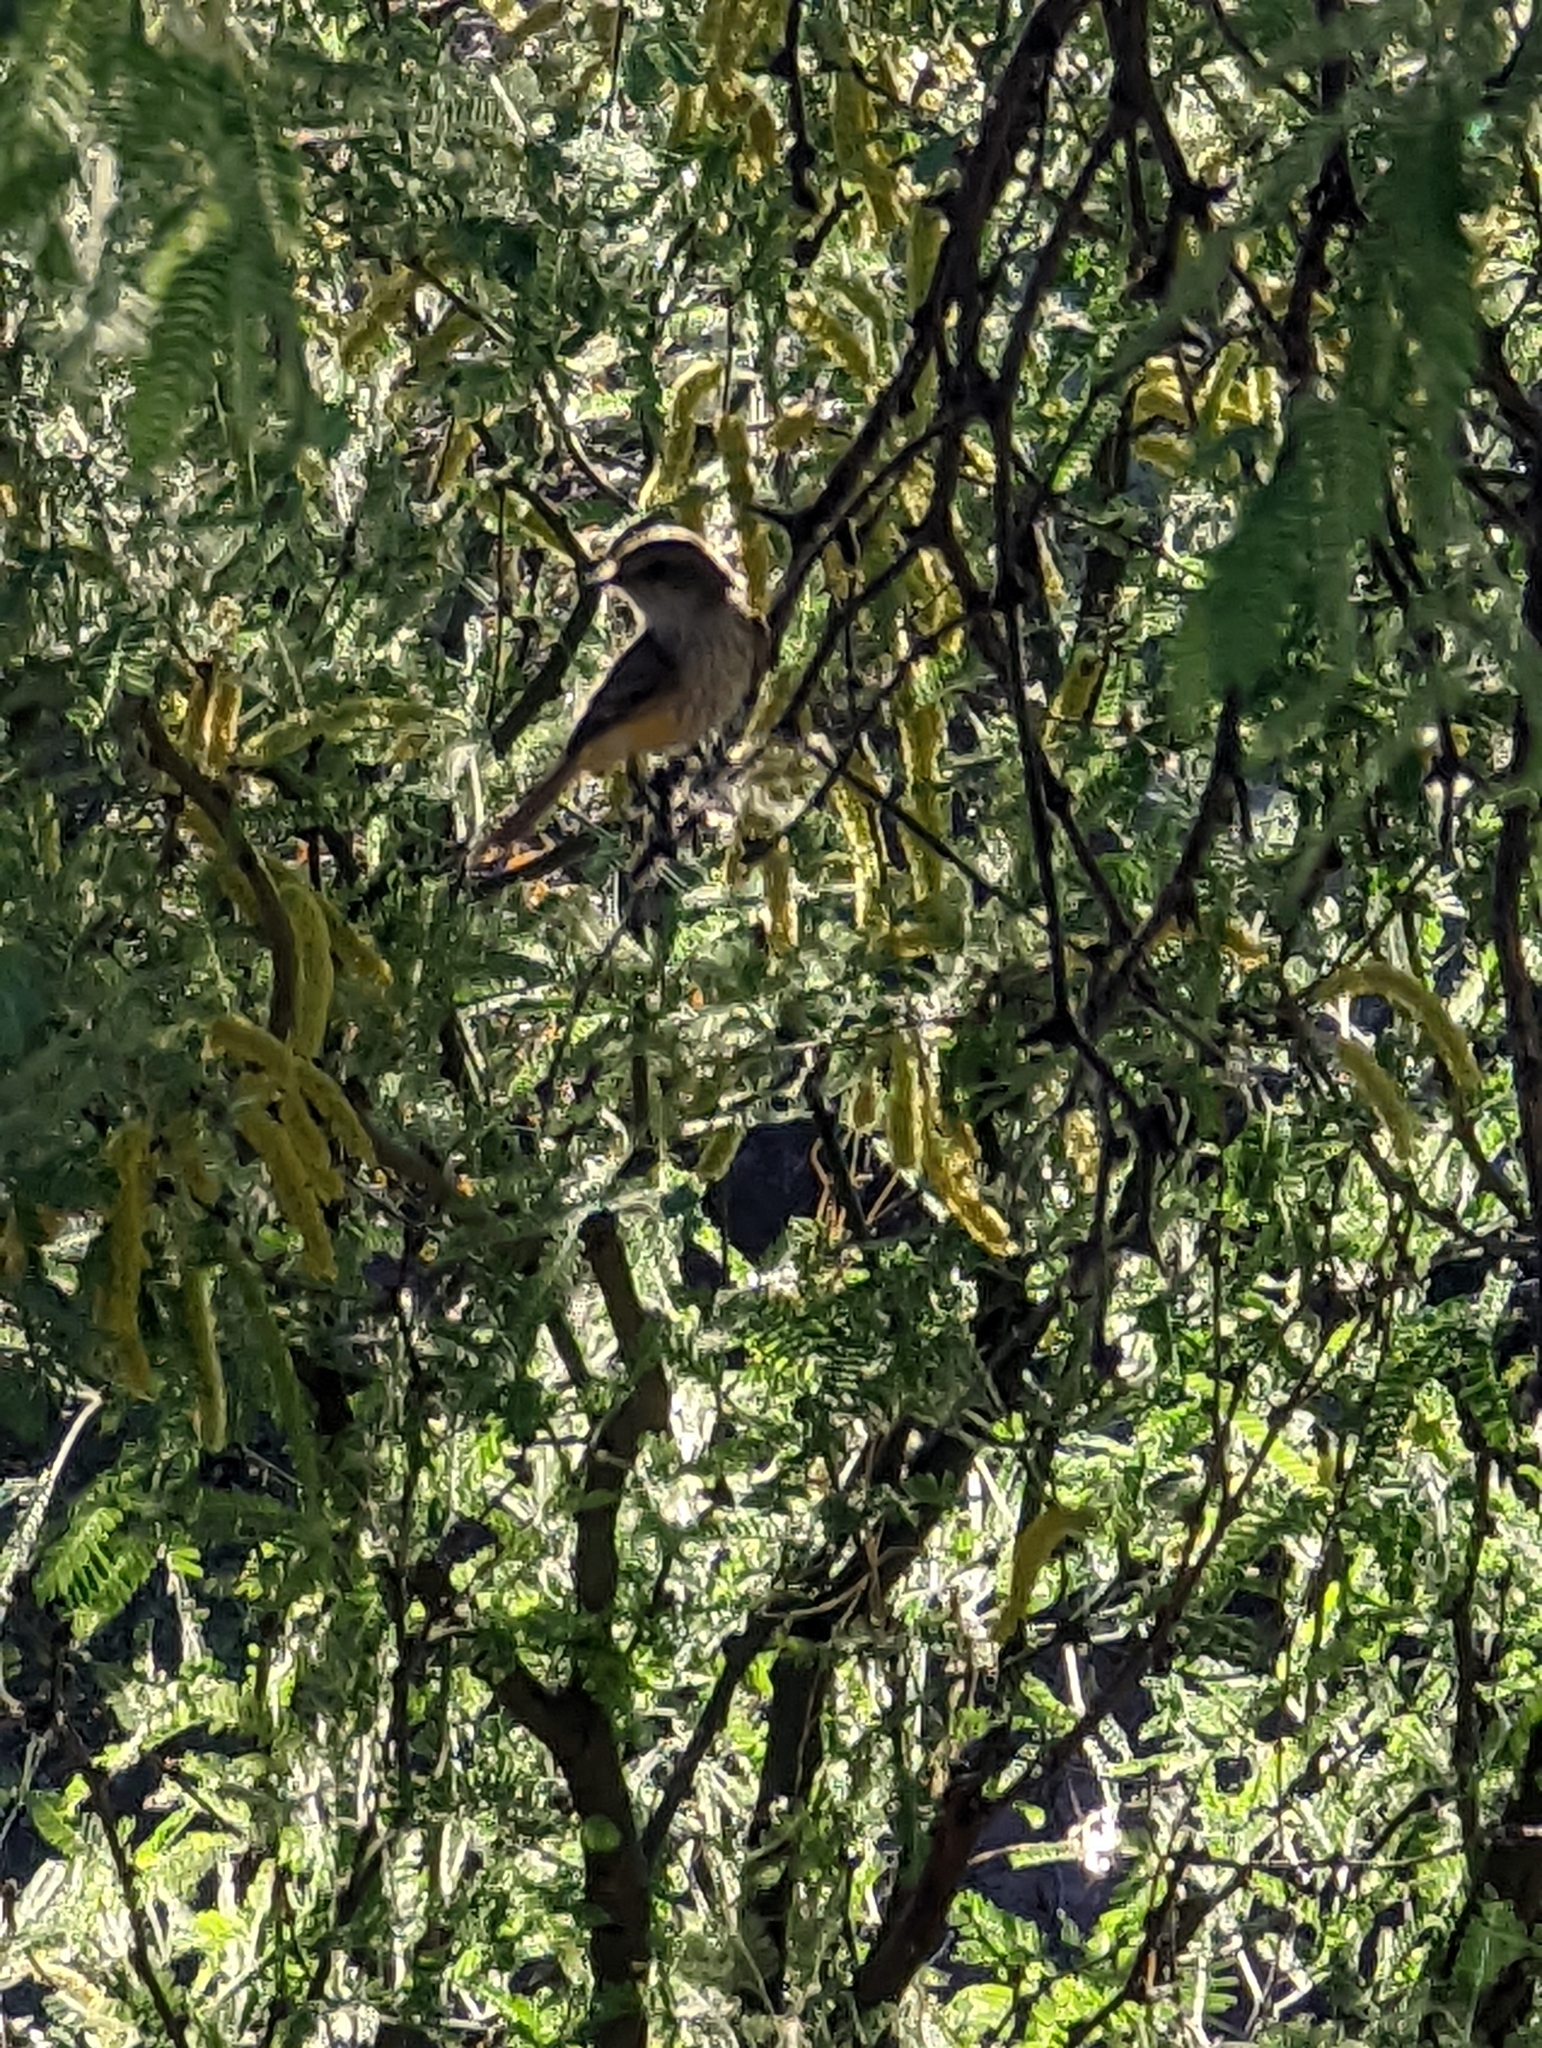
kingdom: Animalia
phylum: Chordata
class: Aves
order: Passeriformes
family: Tyrannidae
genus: Pyrocephalus
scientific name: Pyrocephalus rubinus
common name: Vermilion flycatcher
